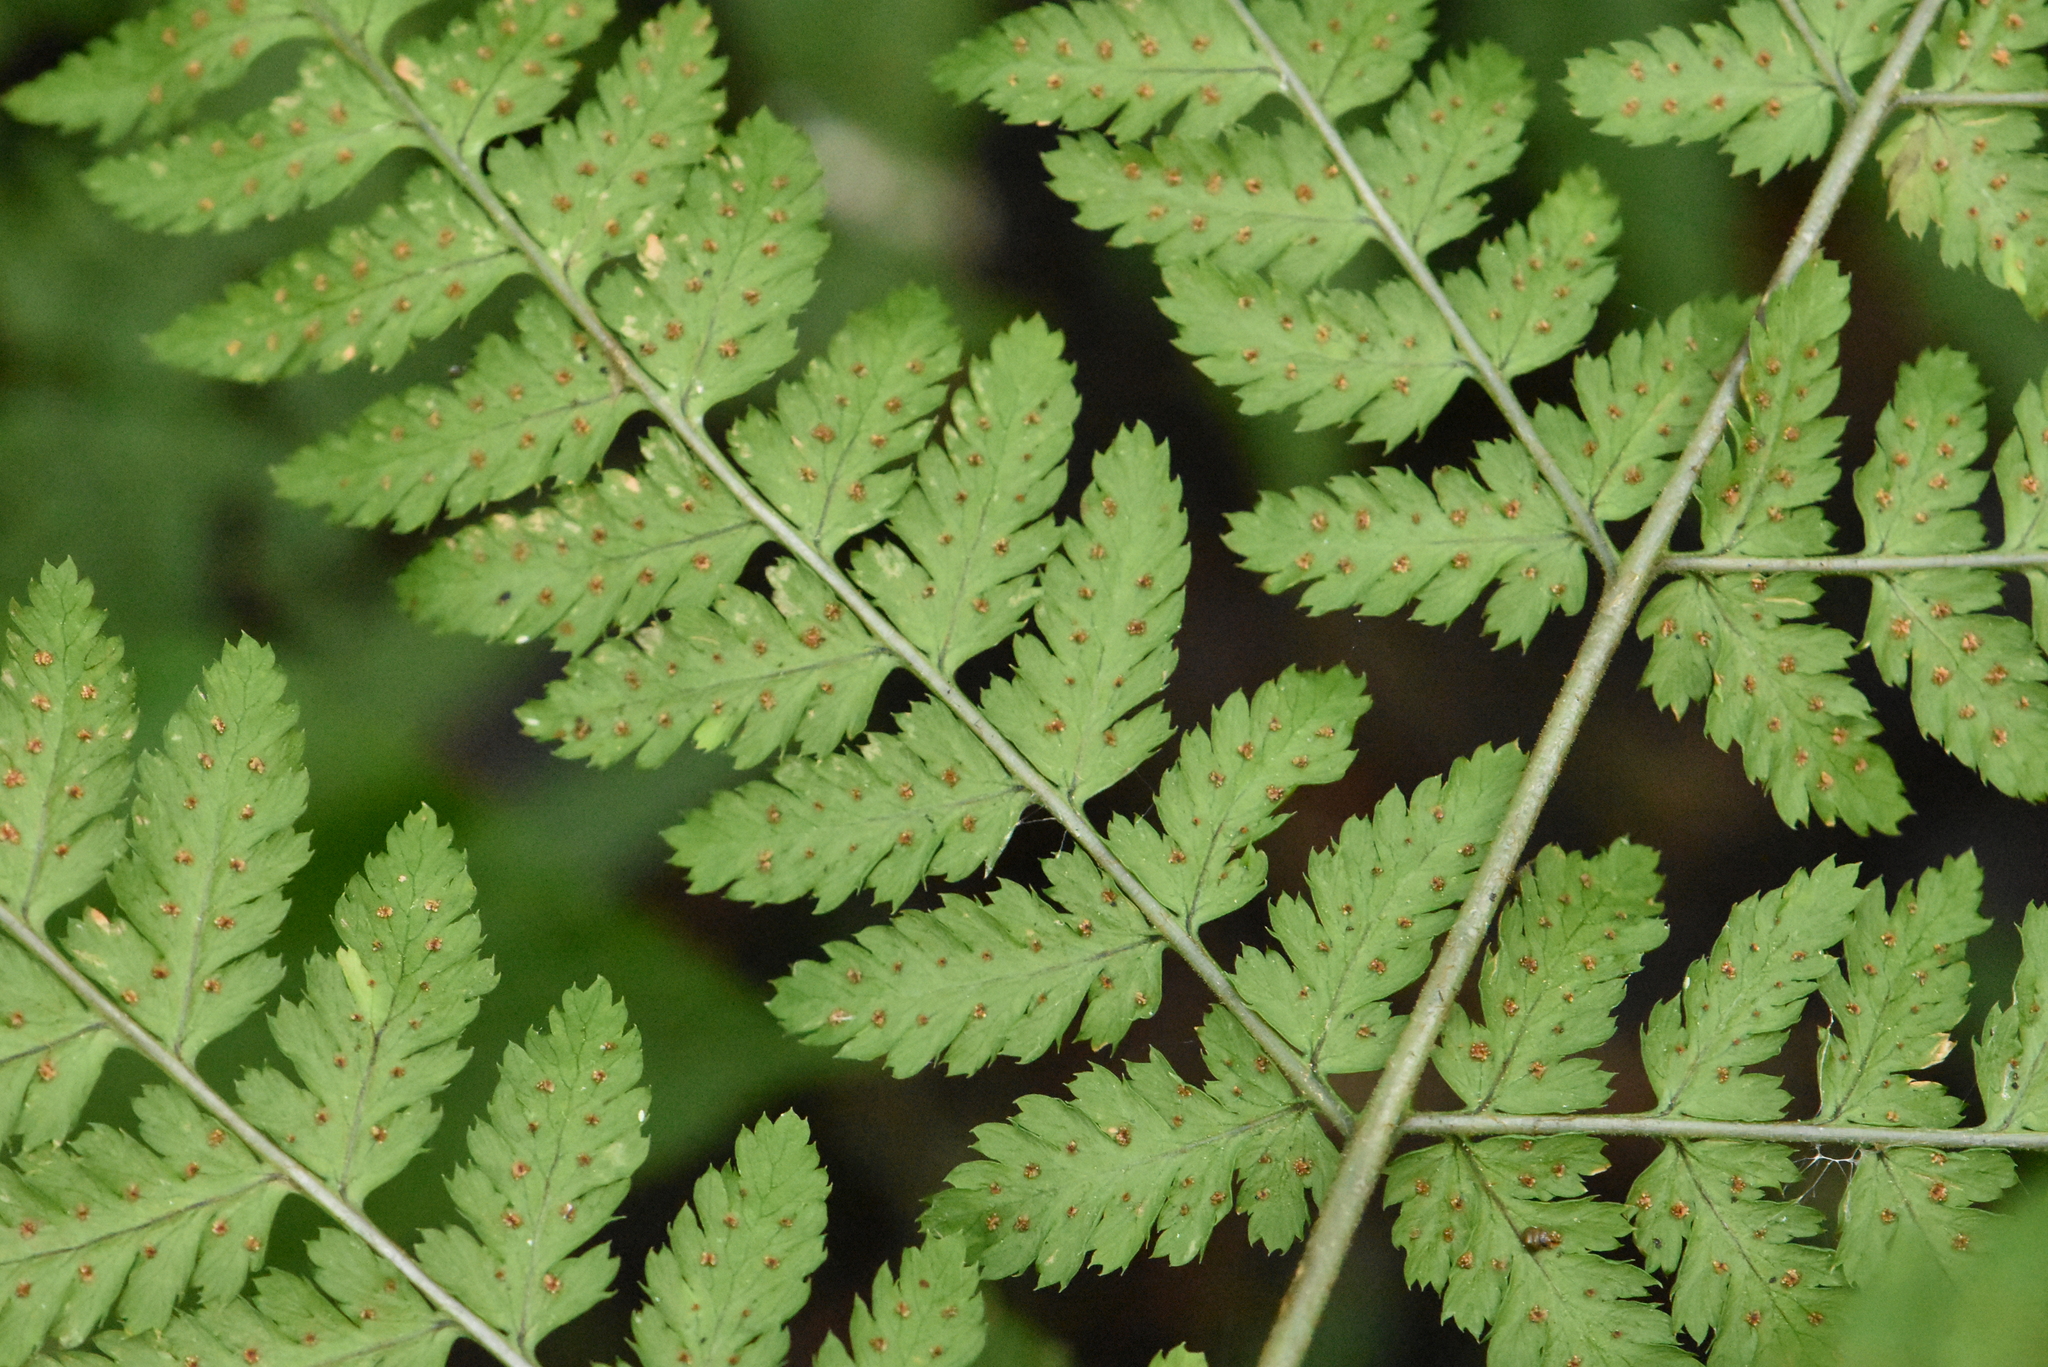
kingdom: Plantae
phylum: Tracheophyta
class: Polypodiopsida
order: Polypodiales
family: Dryopteridaceae
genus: Dryopteris
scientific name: Dryopteris expansa
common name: Northern buckler fern
